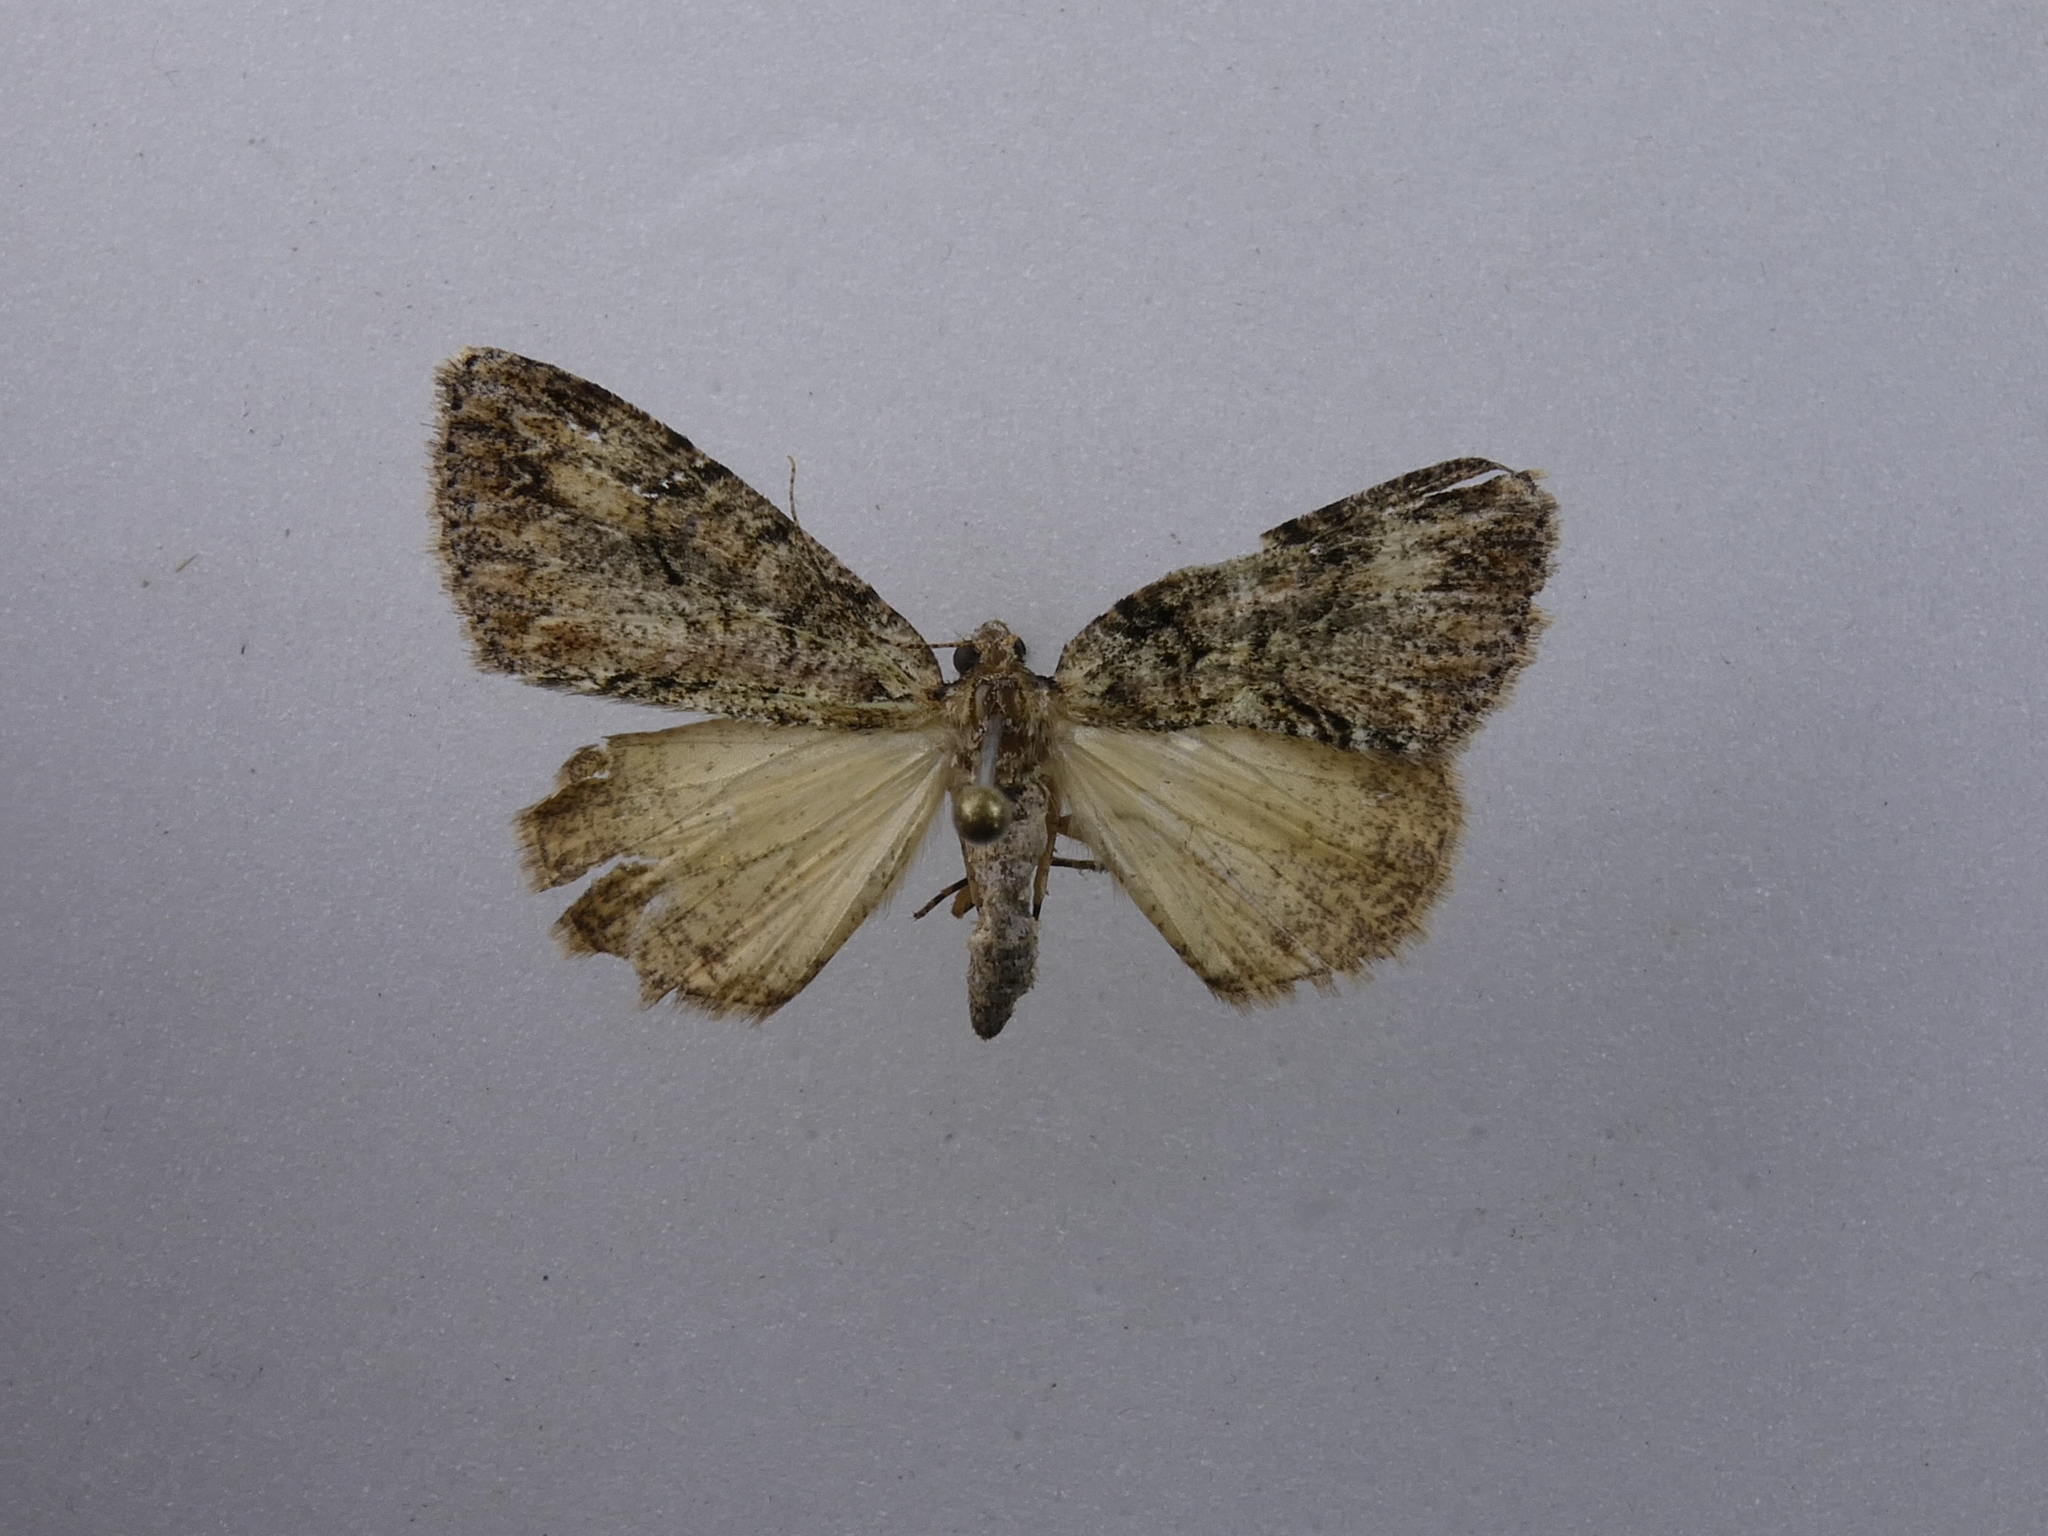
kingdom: Animalia
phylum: Arthropoda
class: Insecta
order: Lepidoptera
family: Geometridae
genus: Pseudocoremia
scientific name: Pseudocoremia suavis
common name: Common forest looper
